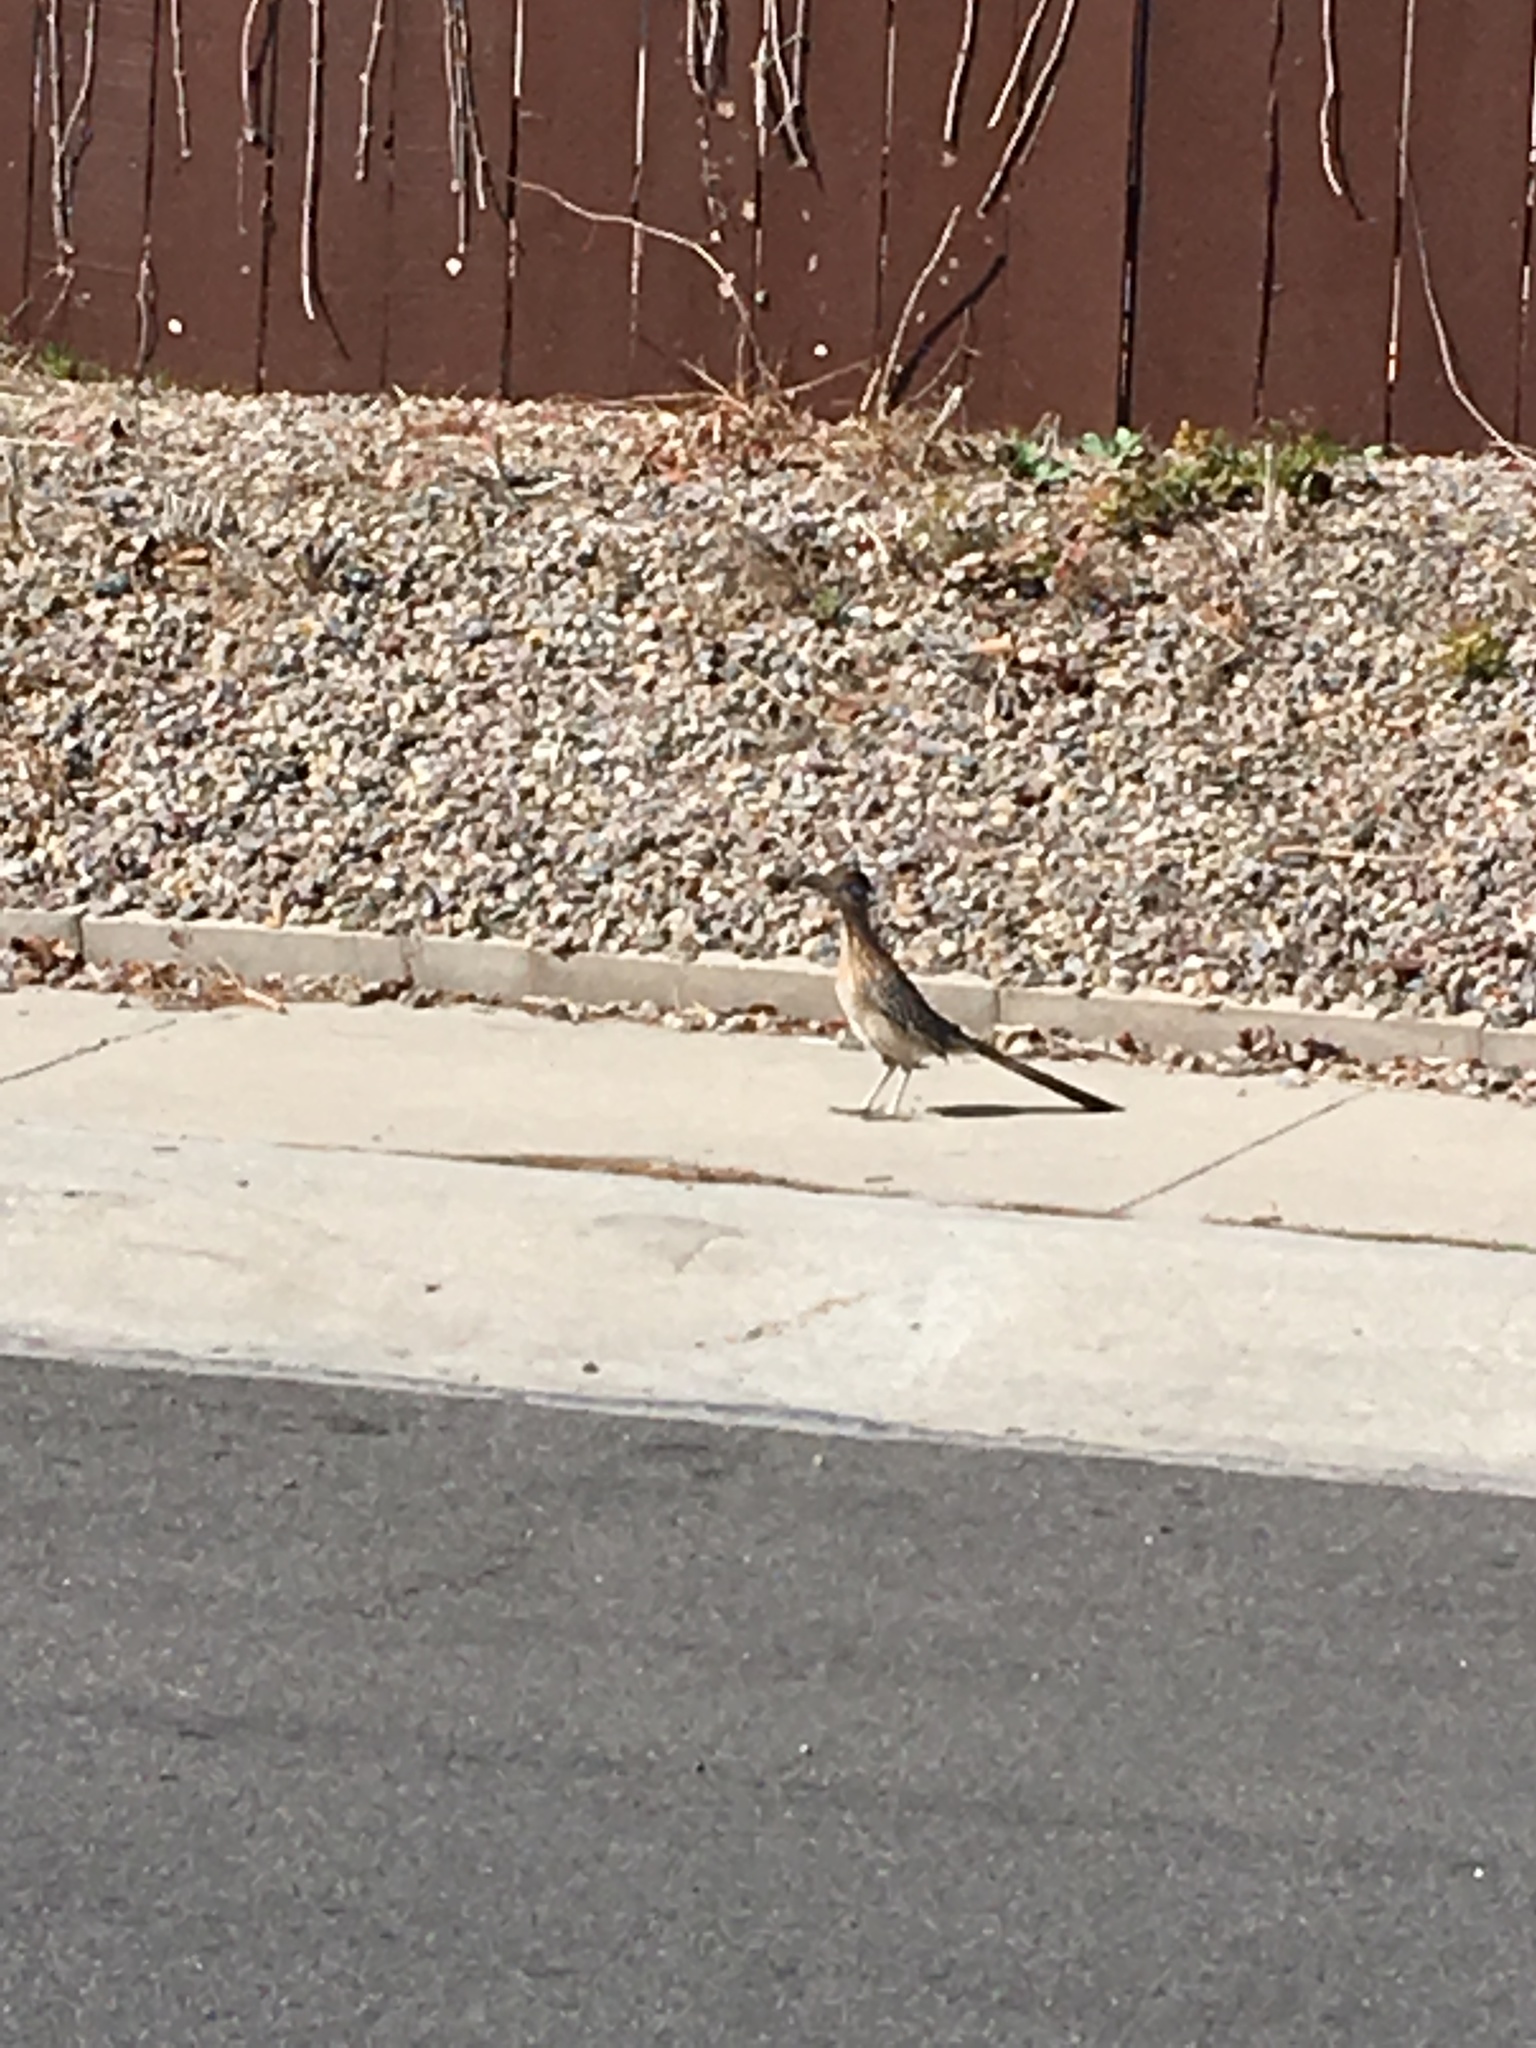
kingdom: Animalia
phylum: Chordata
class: Aves
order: Cuculiformes
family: Cuculidae
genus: Geococcyx
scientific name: Geococcyx californianus
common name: Greater roadrunner
